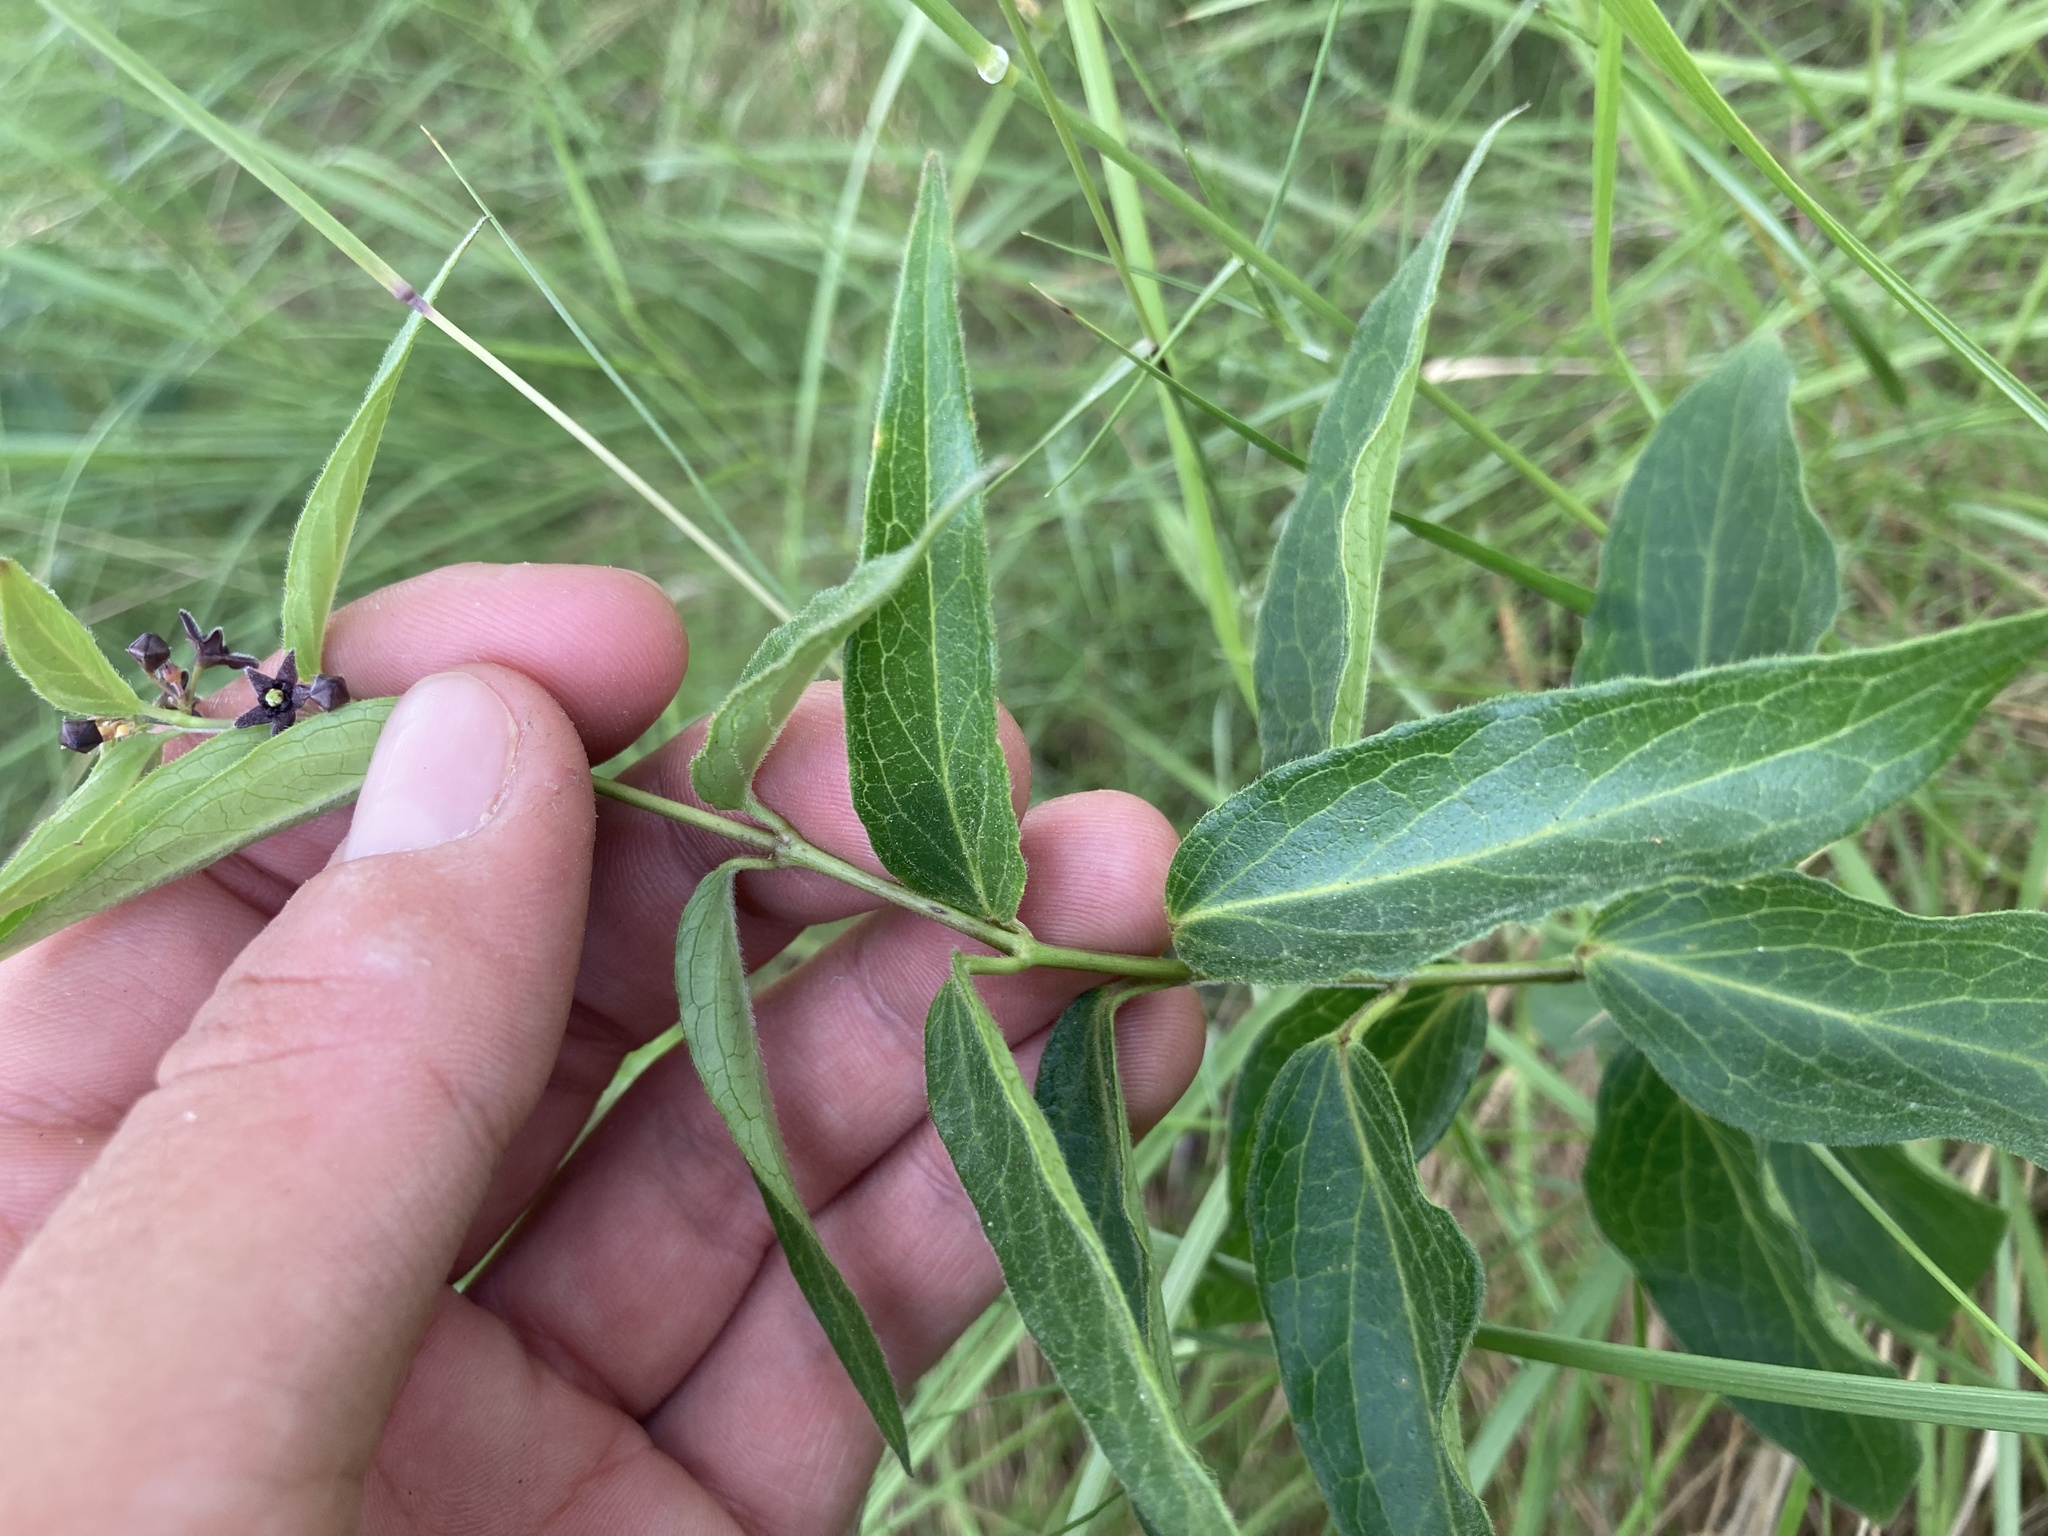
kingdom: Plantae
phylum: Tracheophyta
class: Magnoliopsida
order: Gentianales
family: Apocynaceae
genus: Vincetoxicum
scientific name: Vincetoxicum nigrum
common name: Black swallow-wort
